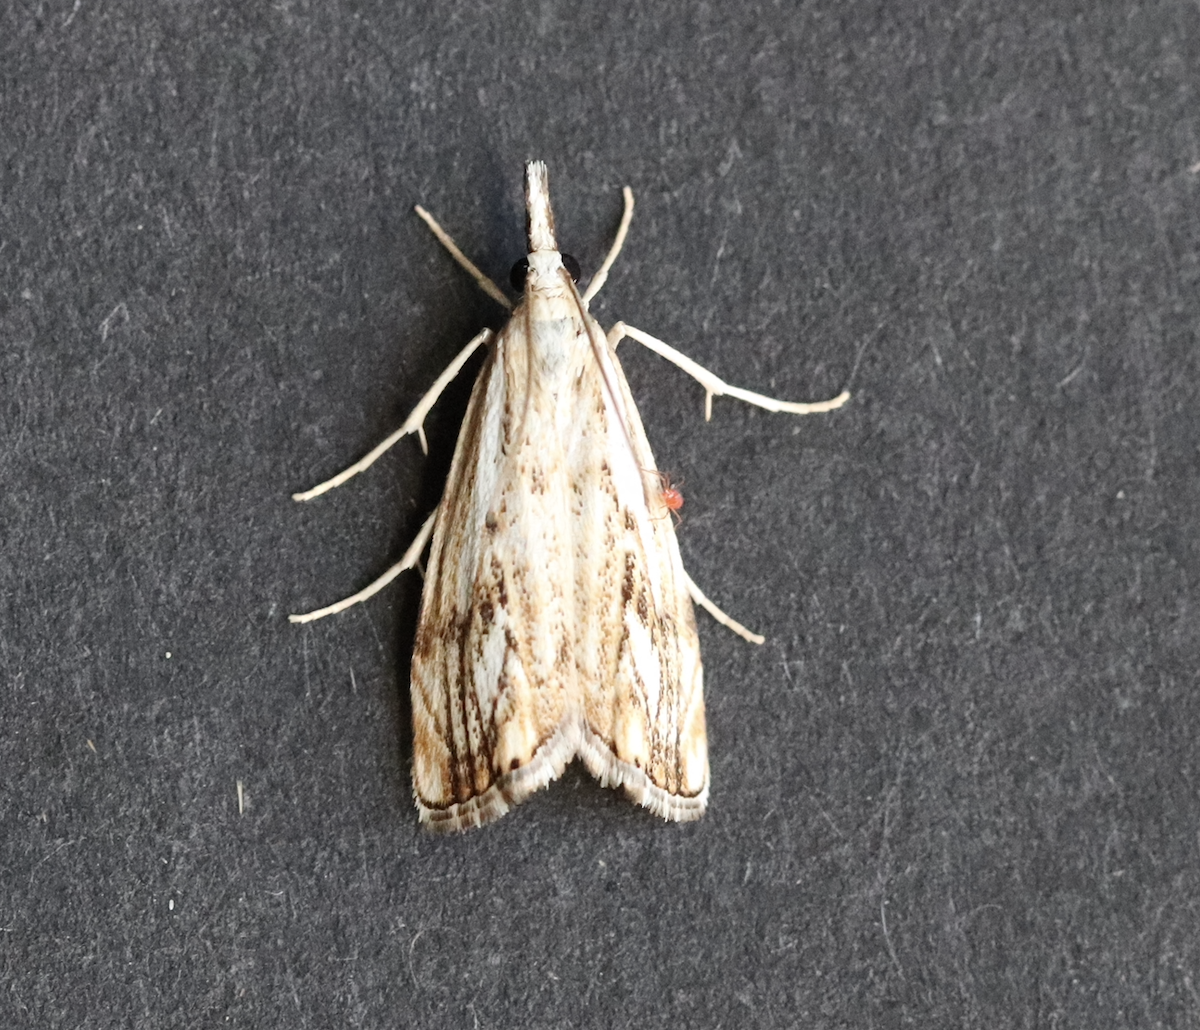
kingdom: Animalia
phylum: Arthropoda
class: Insecta
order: Lepidoptera
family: Crambidae
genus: Catoptria
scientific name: Catoptria falsella
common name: Chequered grass-veneer
